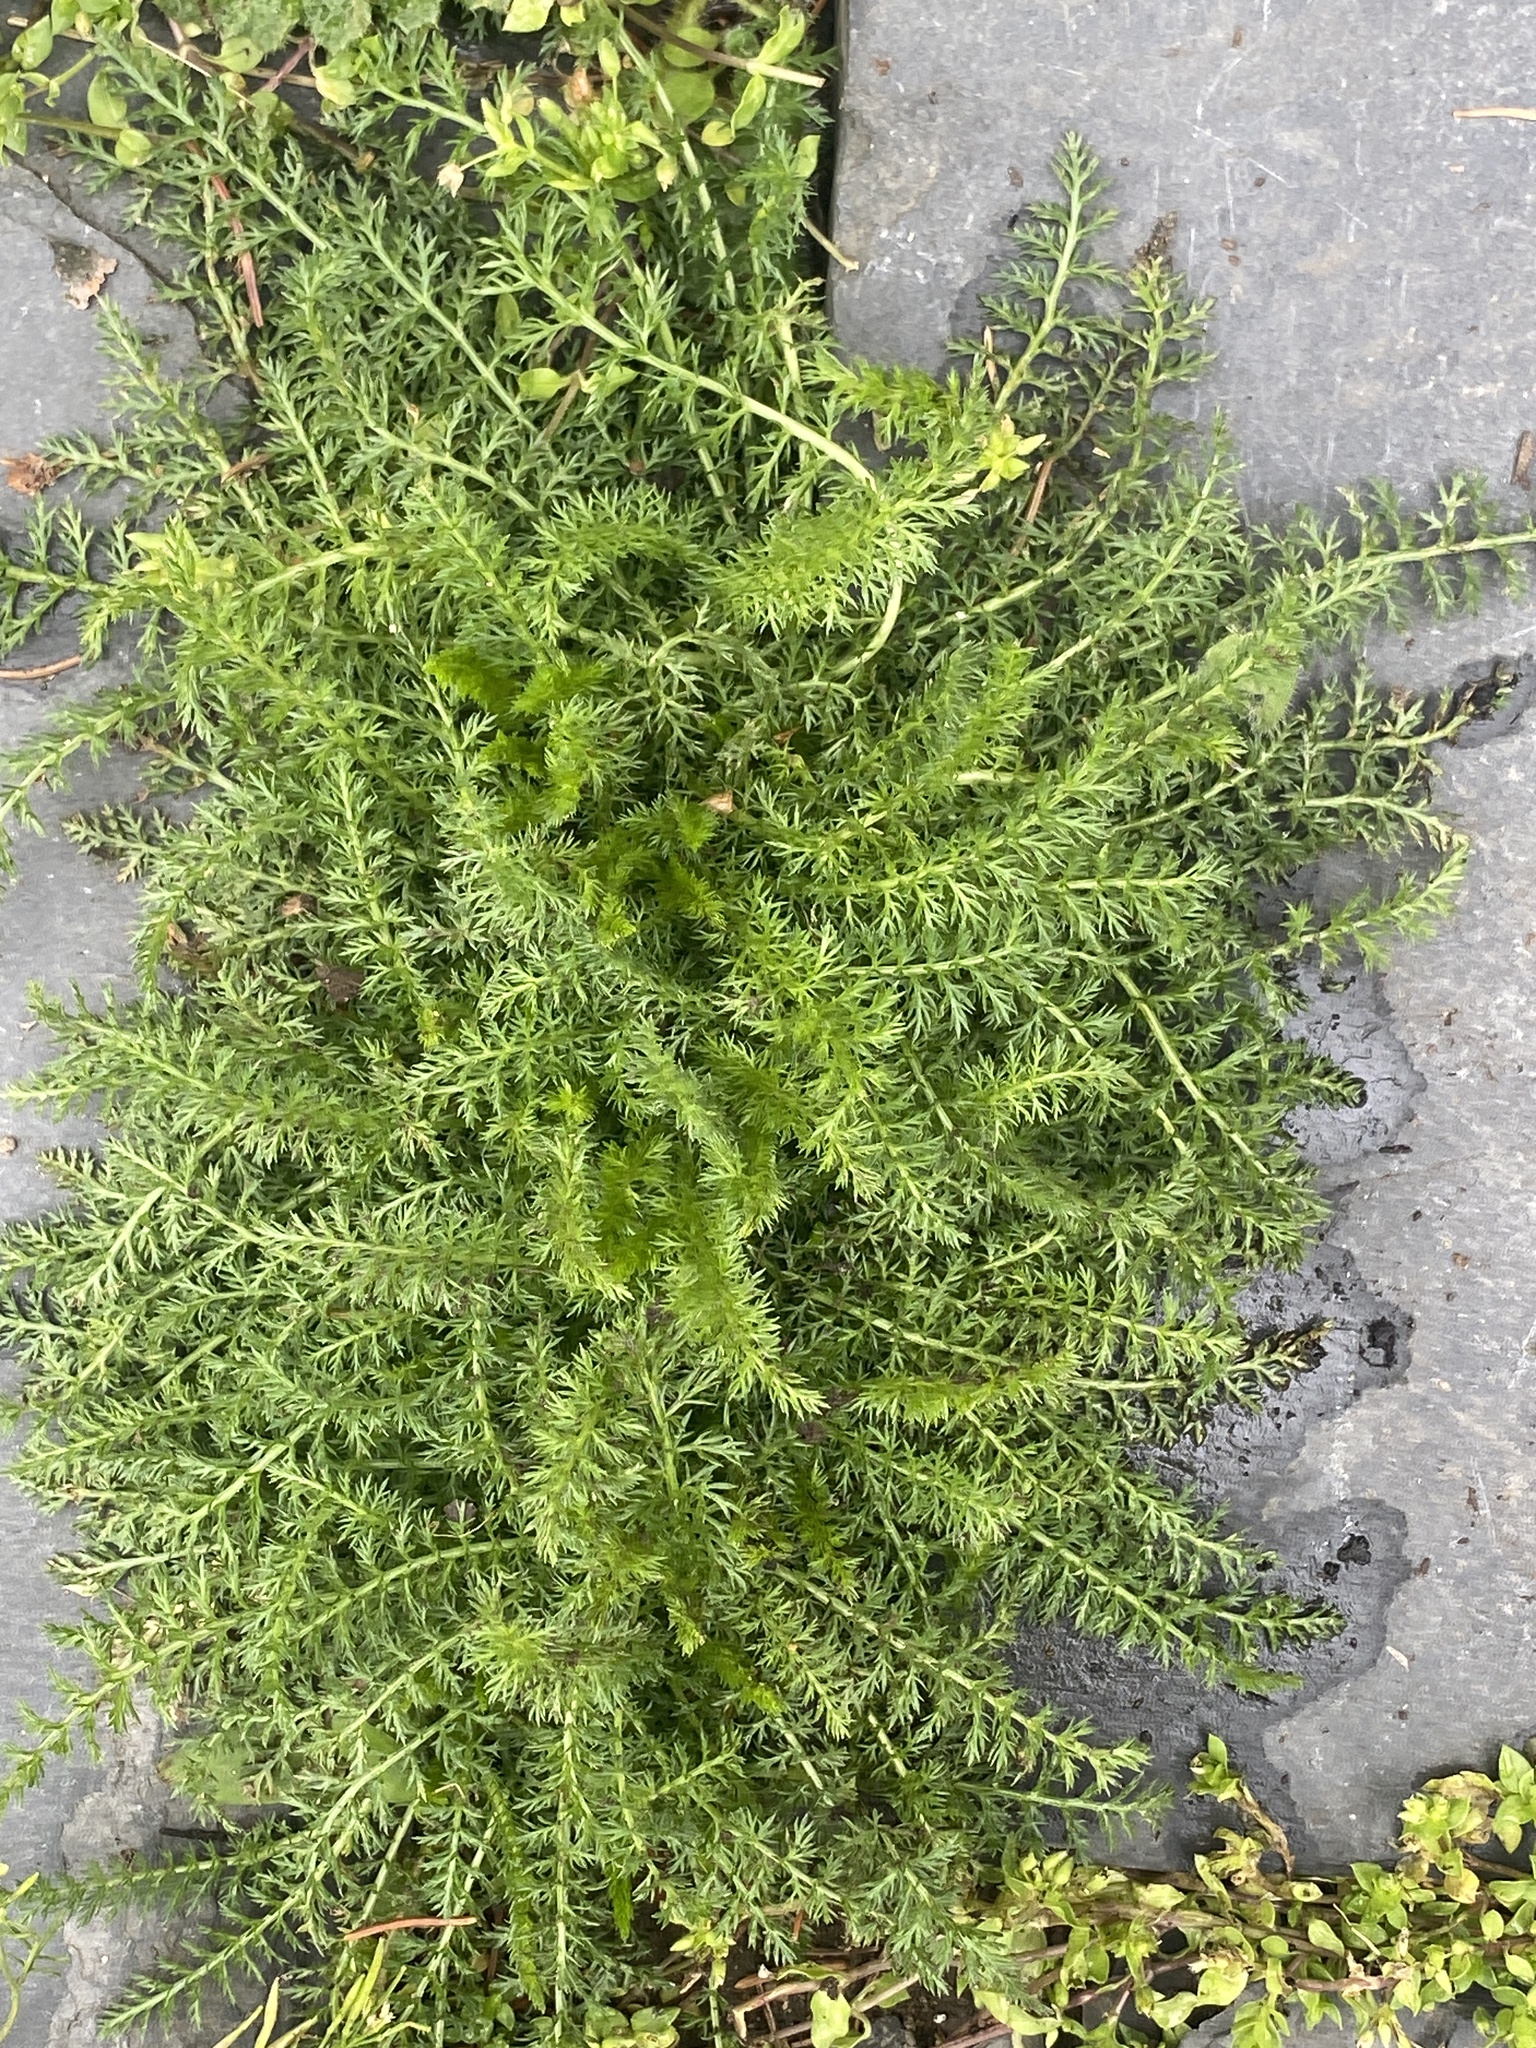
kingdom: Plantae
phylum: Tracheophyta
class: Magnoliopsida
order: Asterales
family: Asteraceae
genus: Achillea
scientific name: Achillea millefolium
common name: Yarrow
